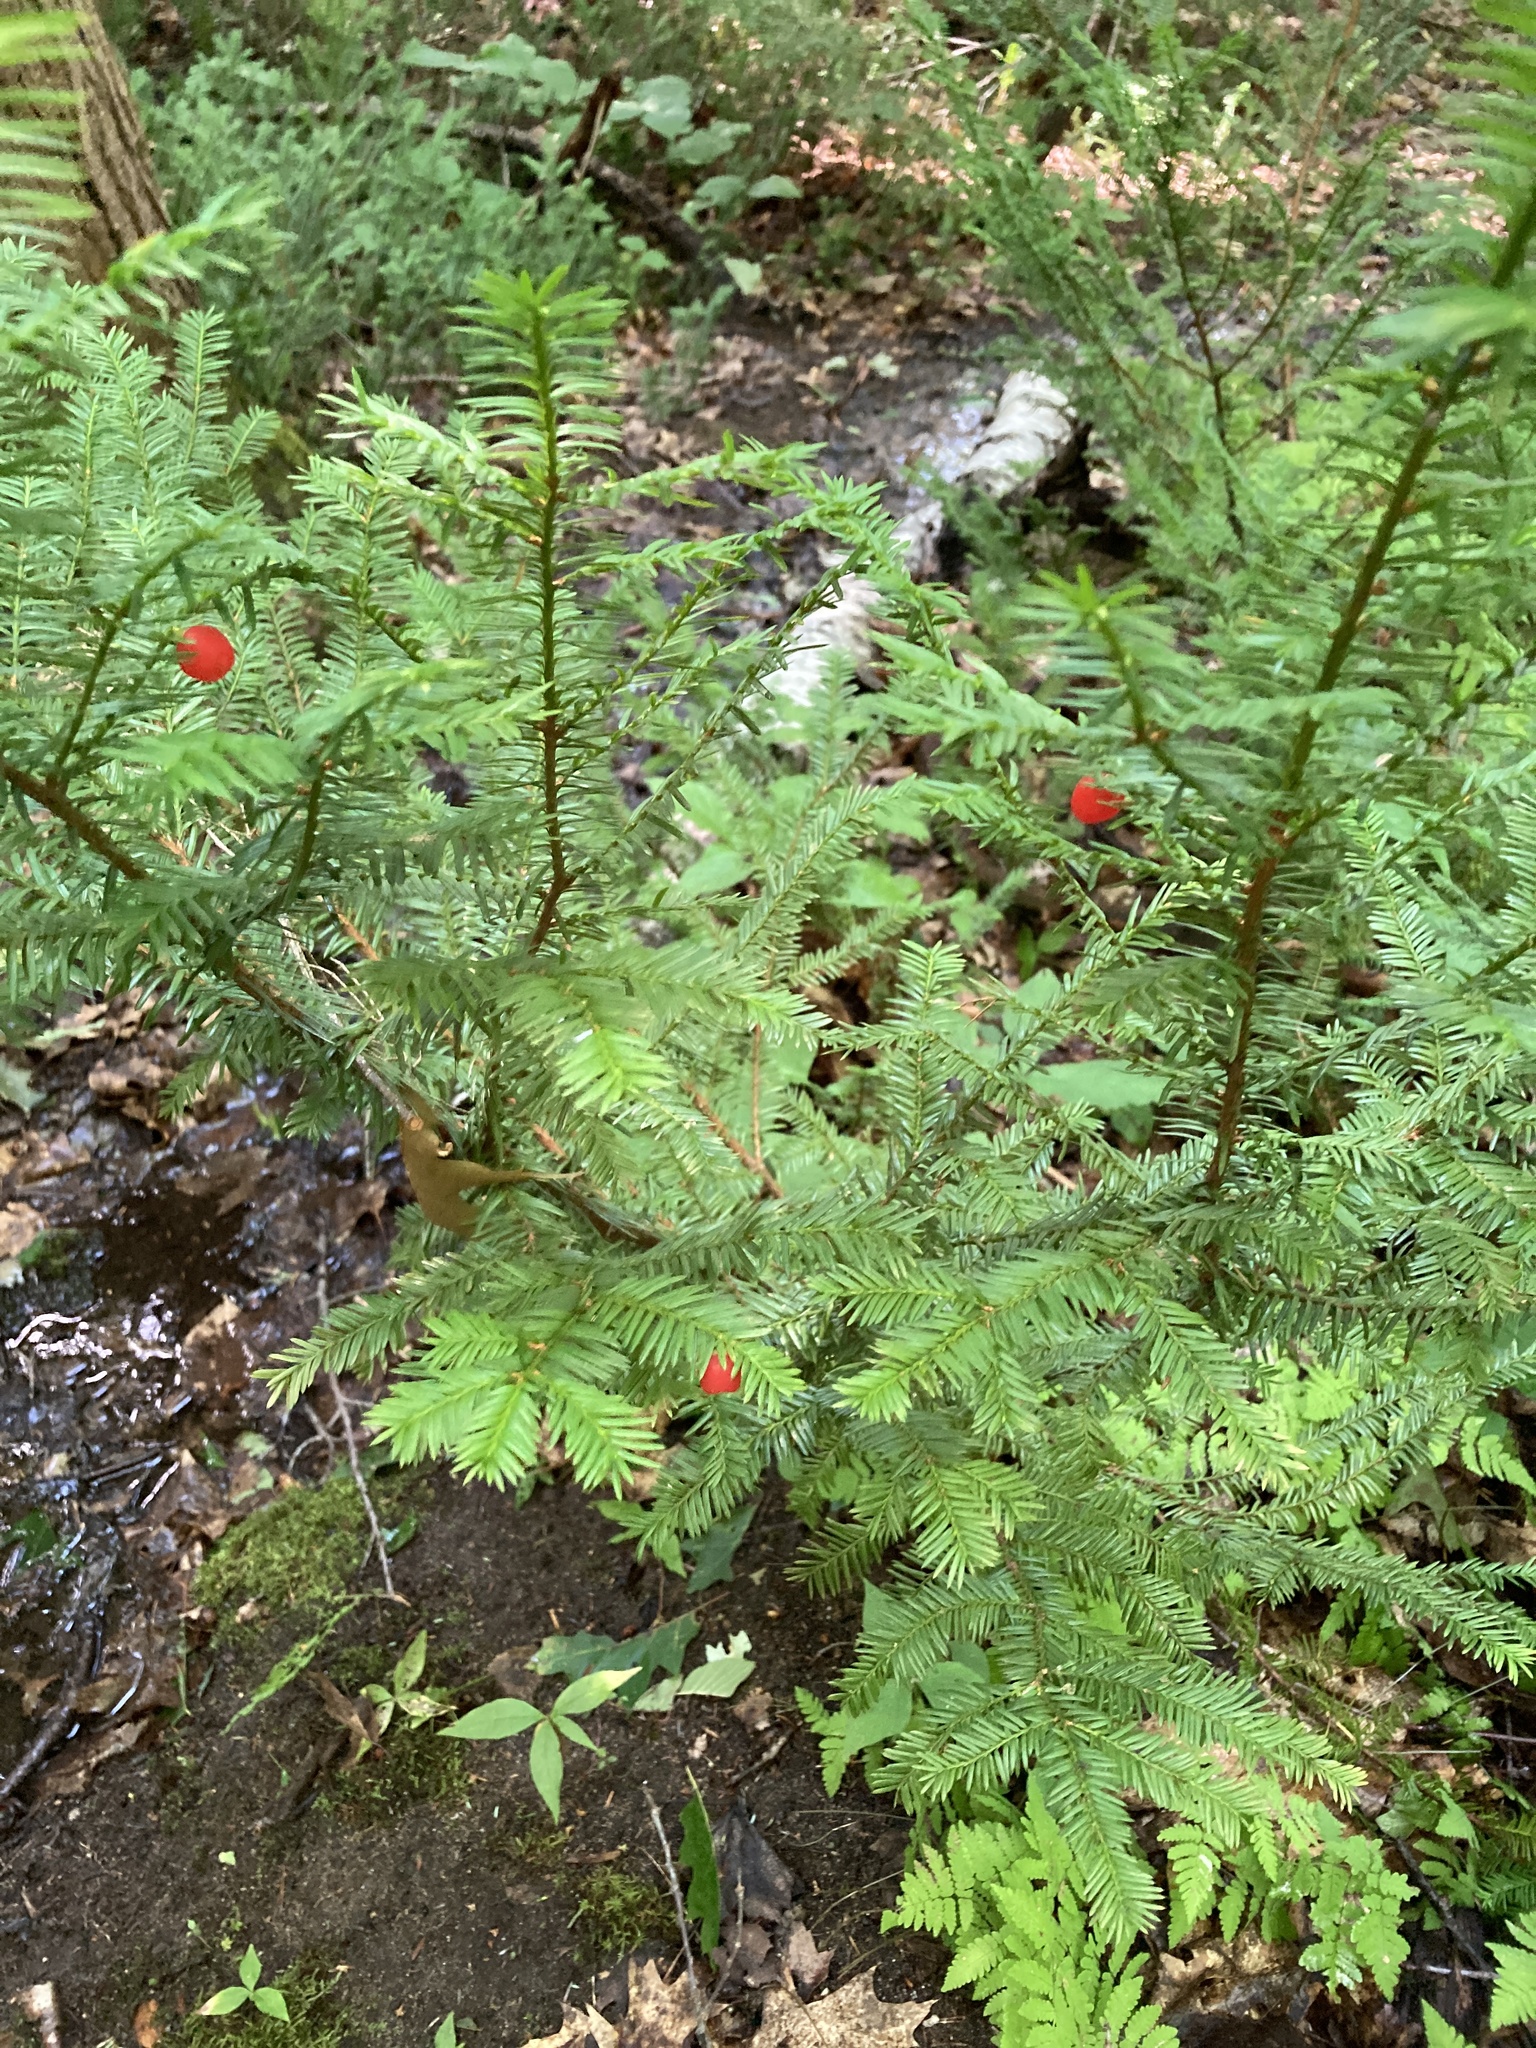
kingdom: Plantae
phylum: Tracheophyta
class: Pinopsida
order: Pinales
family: Taxaceae
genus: Taxus
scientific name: Taxus canadensis
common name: American yew
